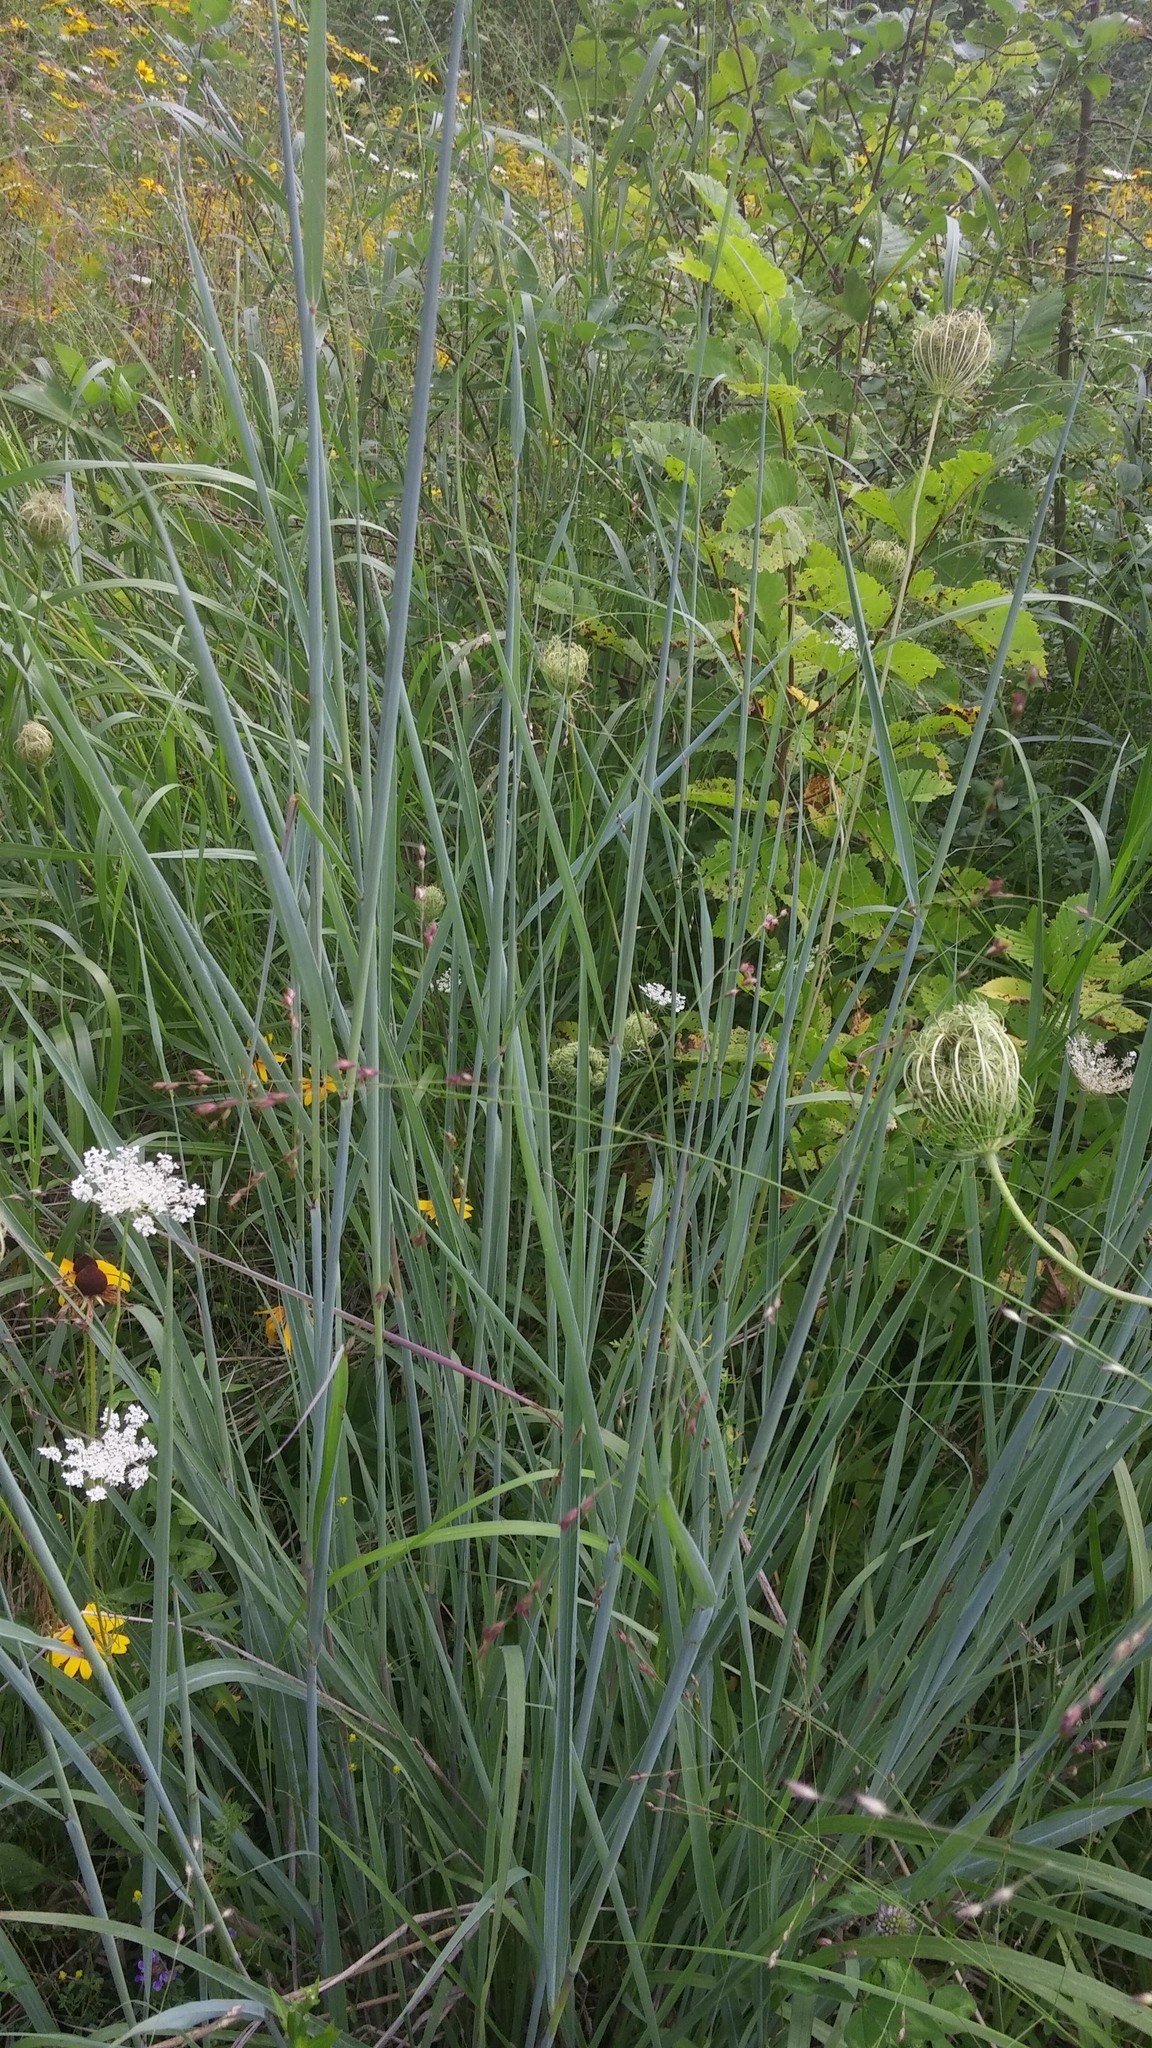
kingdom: Plantae
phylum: Tracheophyta
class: Liliopsida
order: Poales
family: Poaceae
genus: Sorghastrum
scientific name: Sorghastrum nutans
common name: Indian grass
